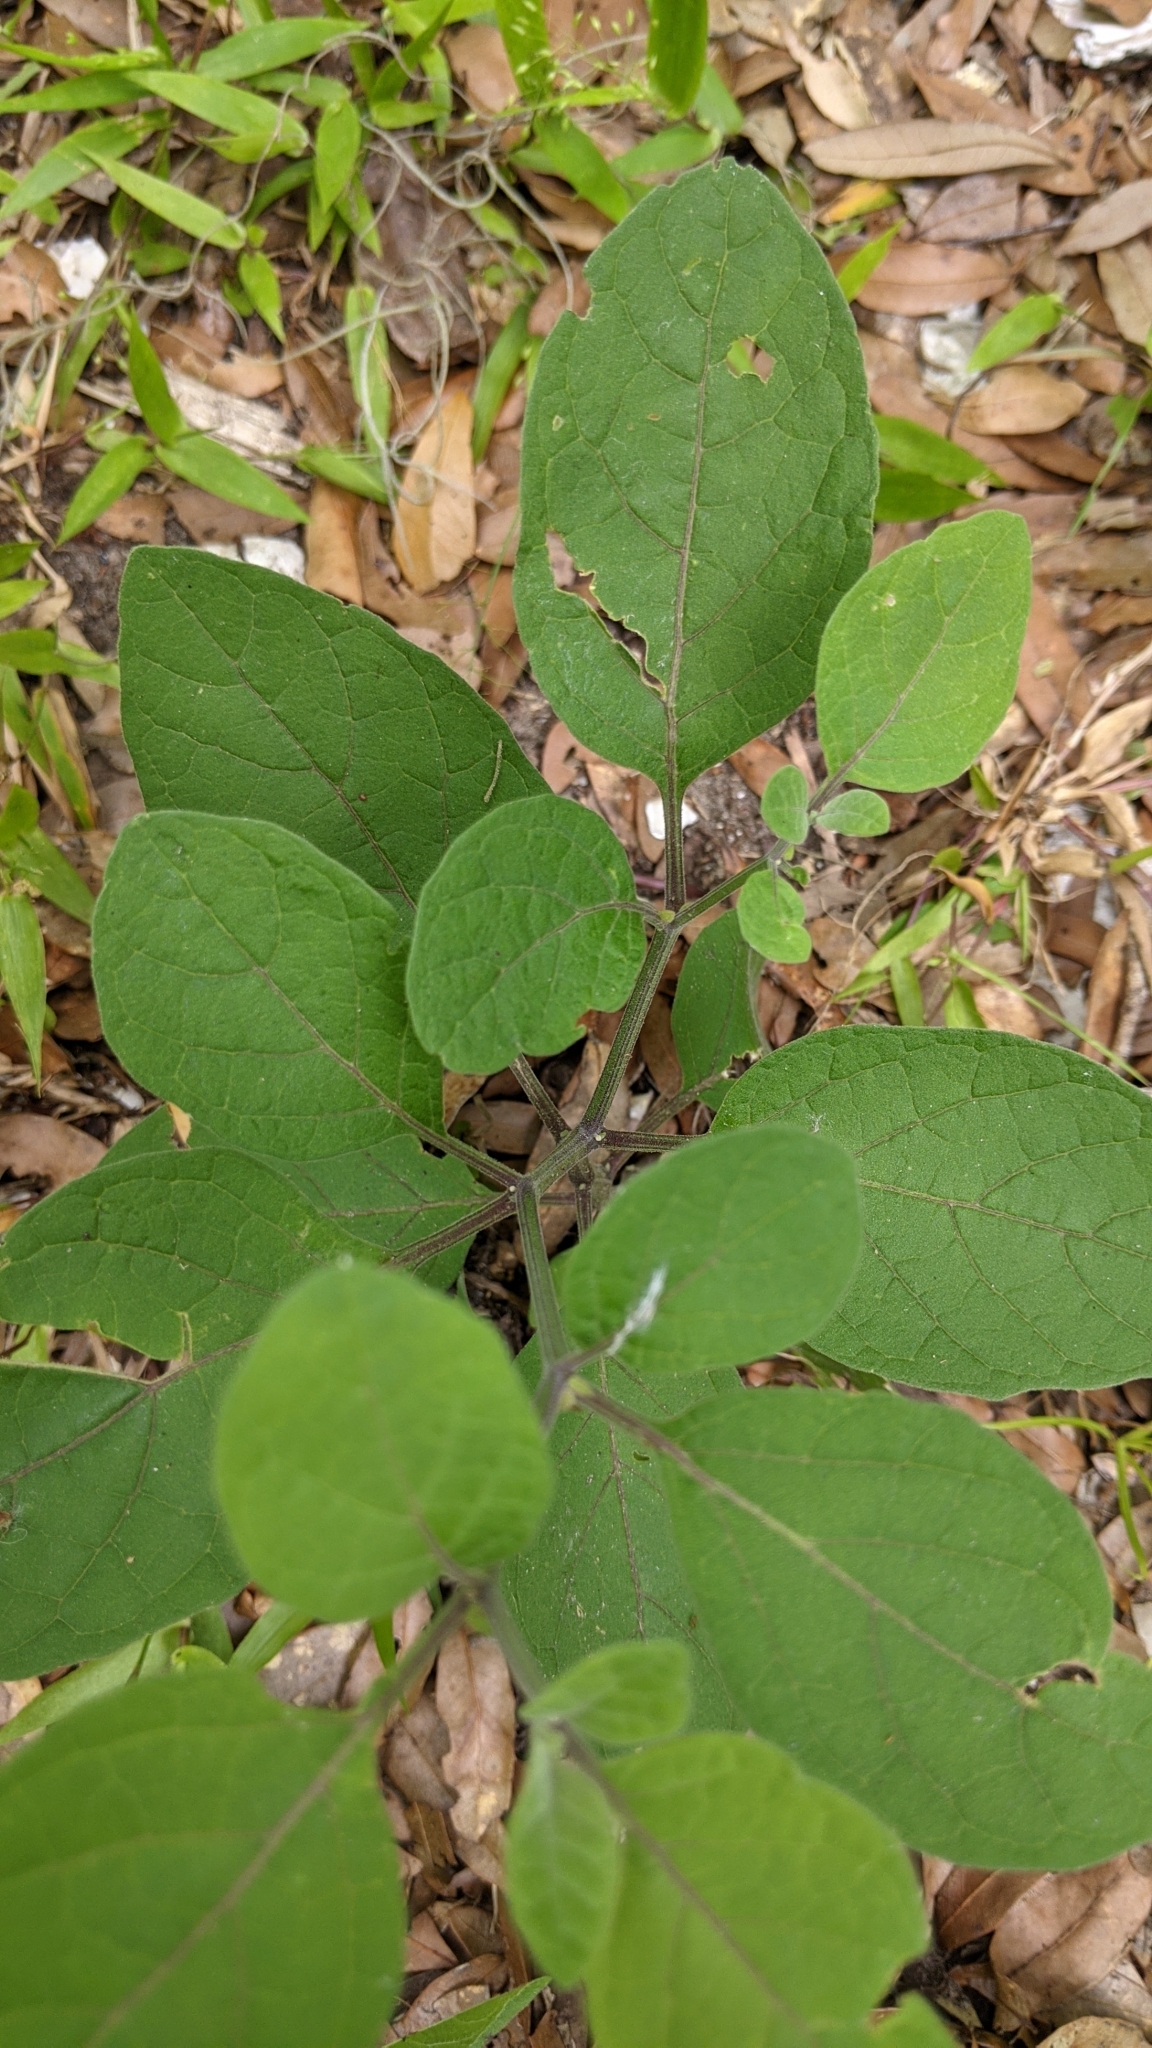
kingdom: Plantae
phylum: Tracheophyta
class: Magnoliopsida
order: Solanales
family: Solanaceae
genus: Physalis
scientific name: Physalis walteri
